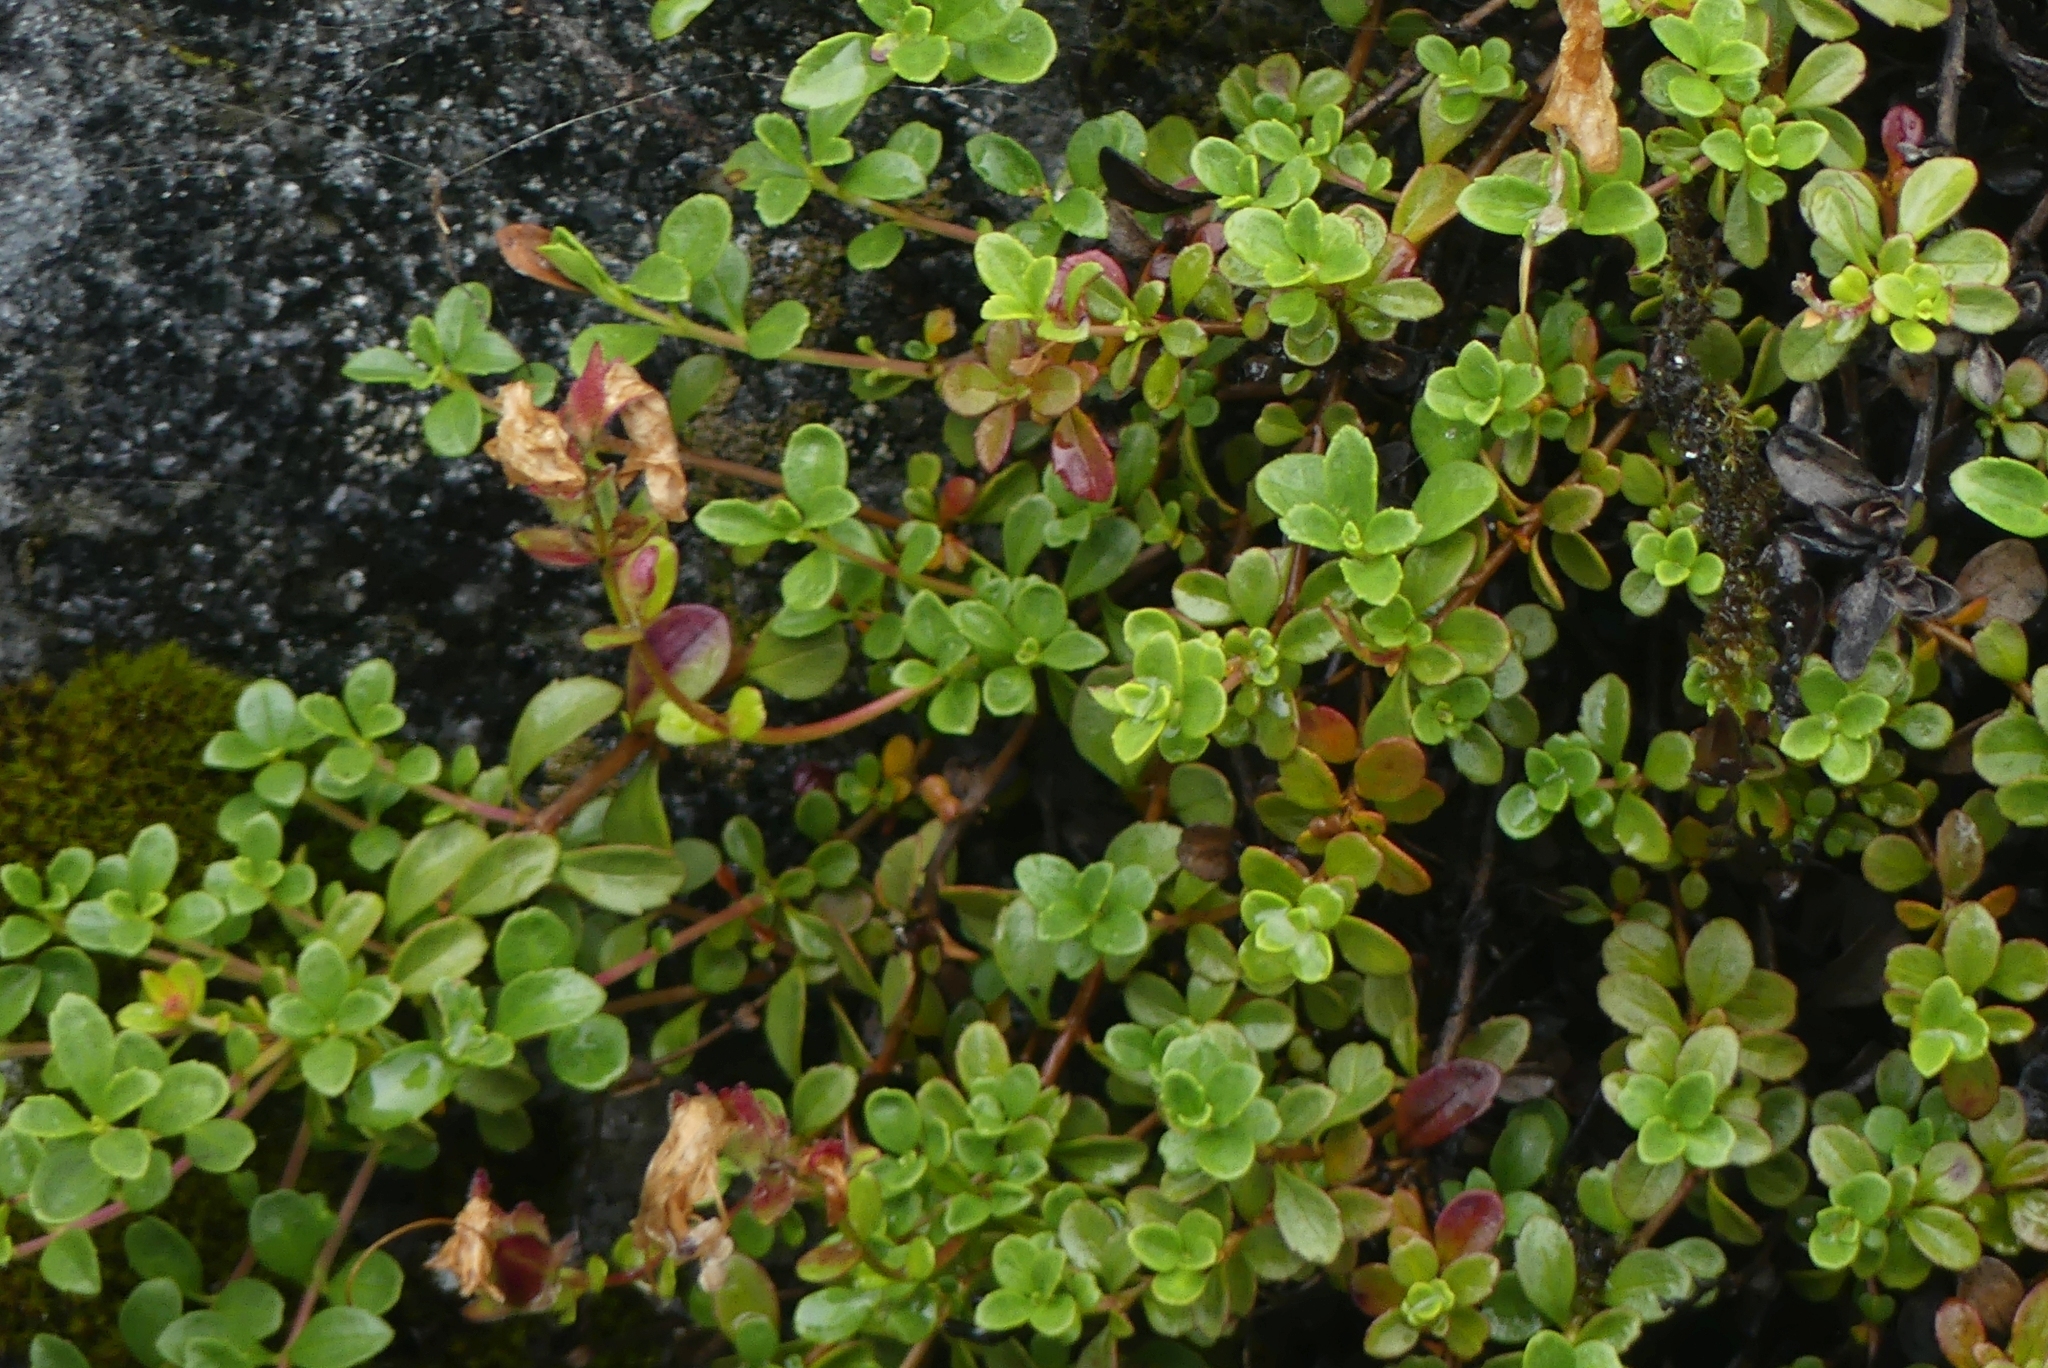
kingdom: Plantae
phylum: Tracheophyta
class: Magnoliopsida
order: Lamiales
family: Plantaginaceae
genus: Penstemon
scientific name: Penstemon davidsonii
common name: Davidson's penstemon
